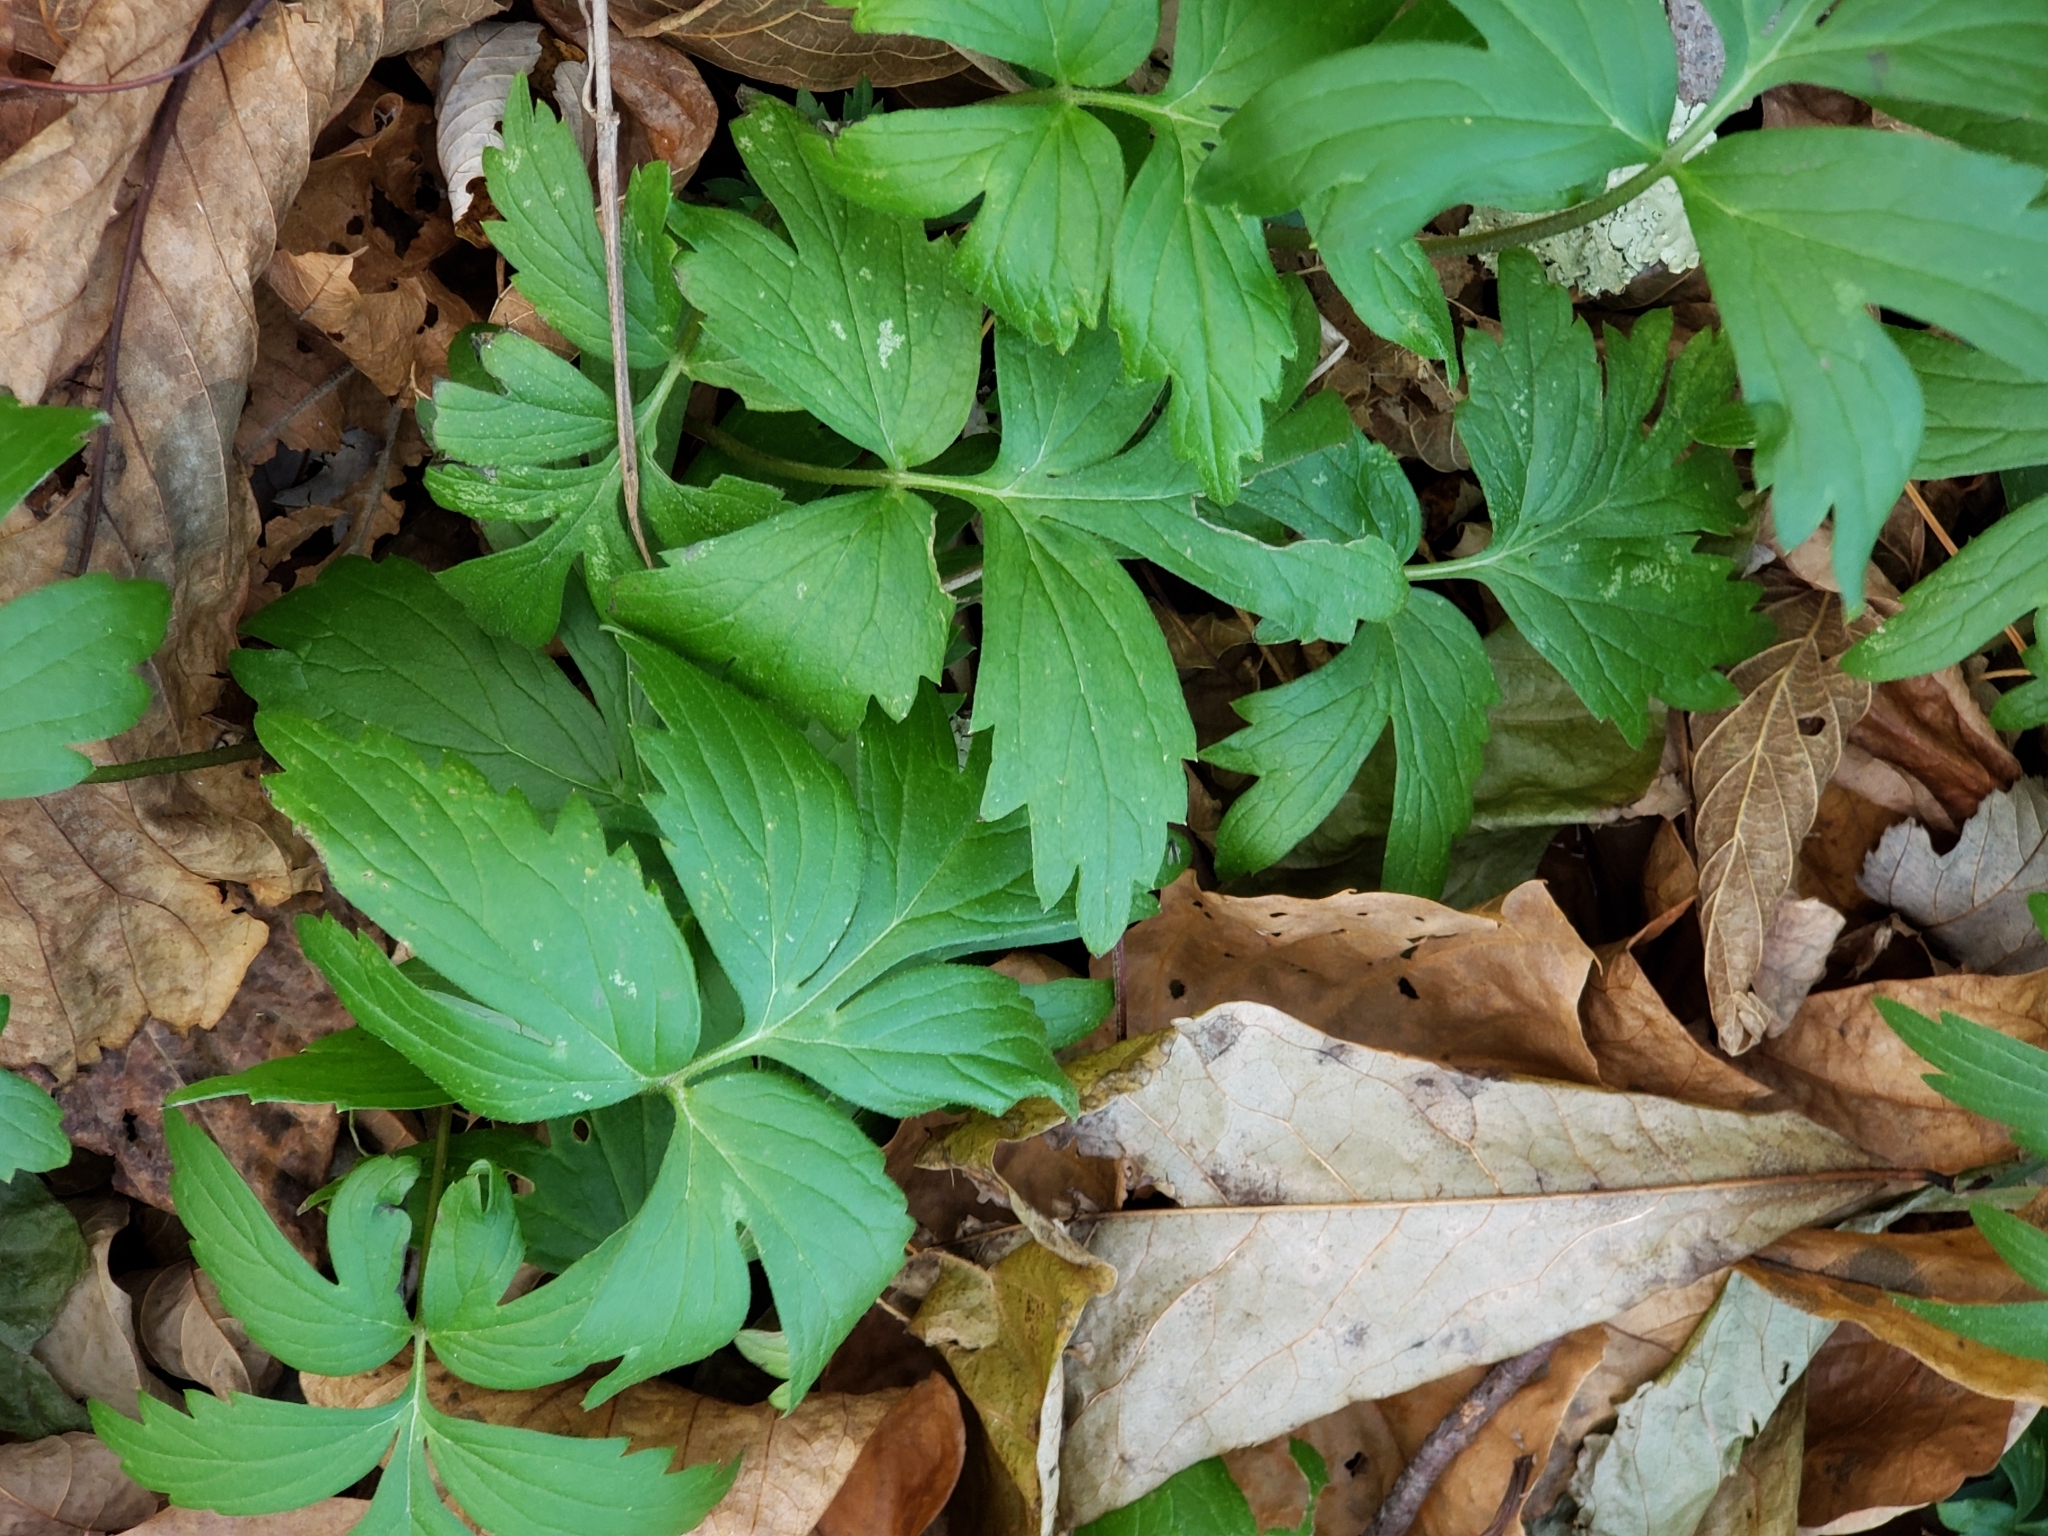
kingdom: Plantae
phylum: Tracheophyta
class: Magnoliopsida
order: Boraginales
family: Hydrophyllaceae
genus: Hydrophyllum
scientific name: Hydrophyllum virginianum
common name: Virginia waterleaf
